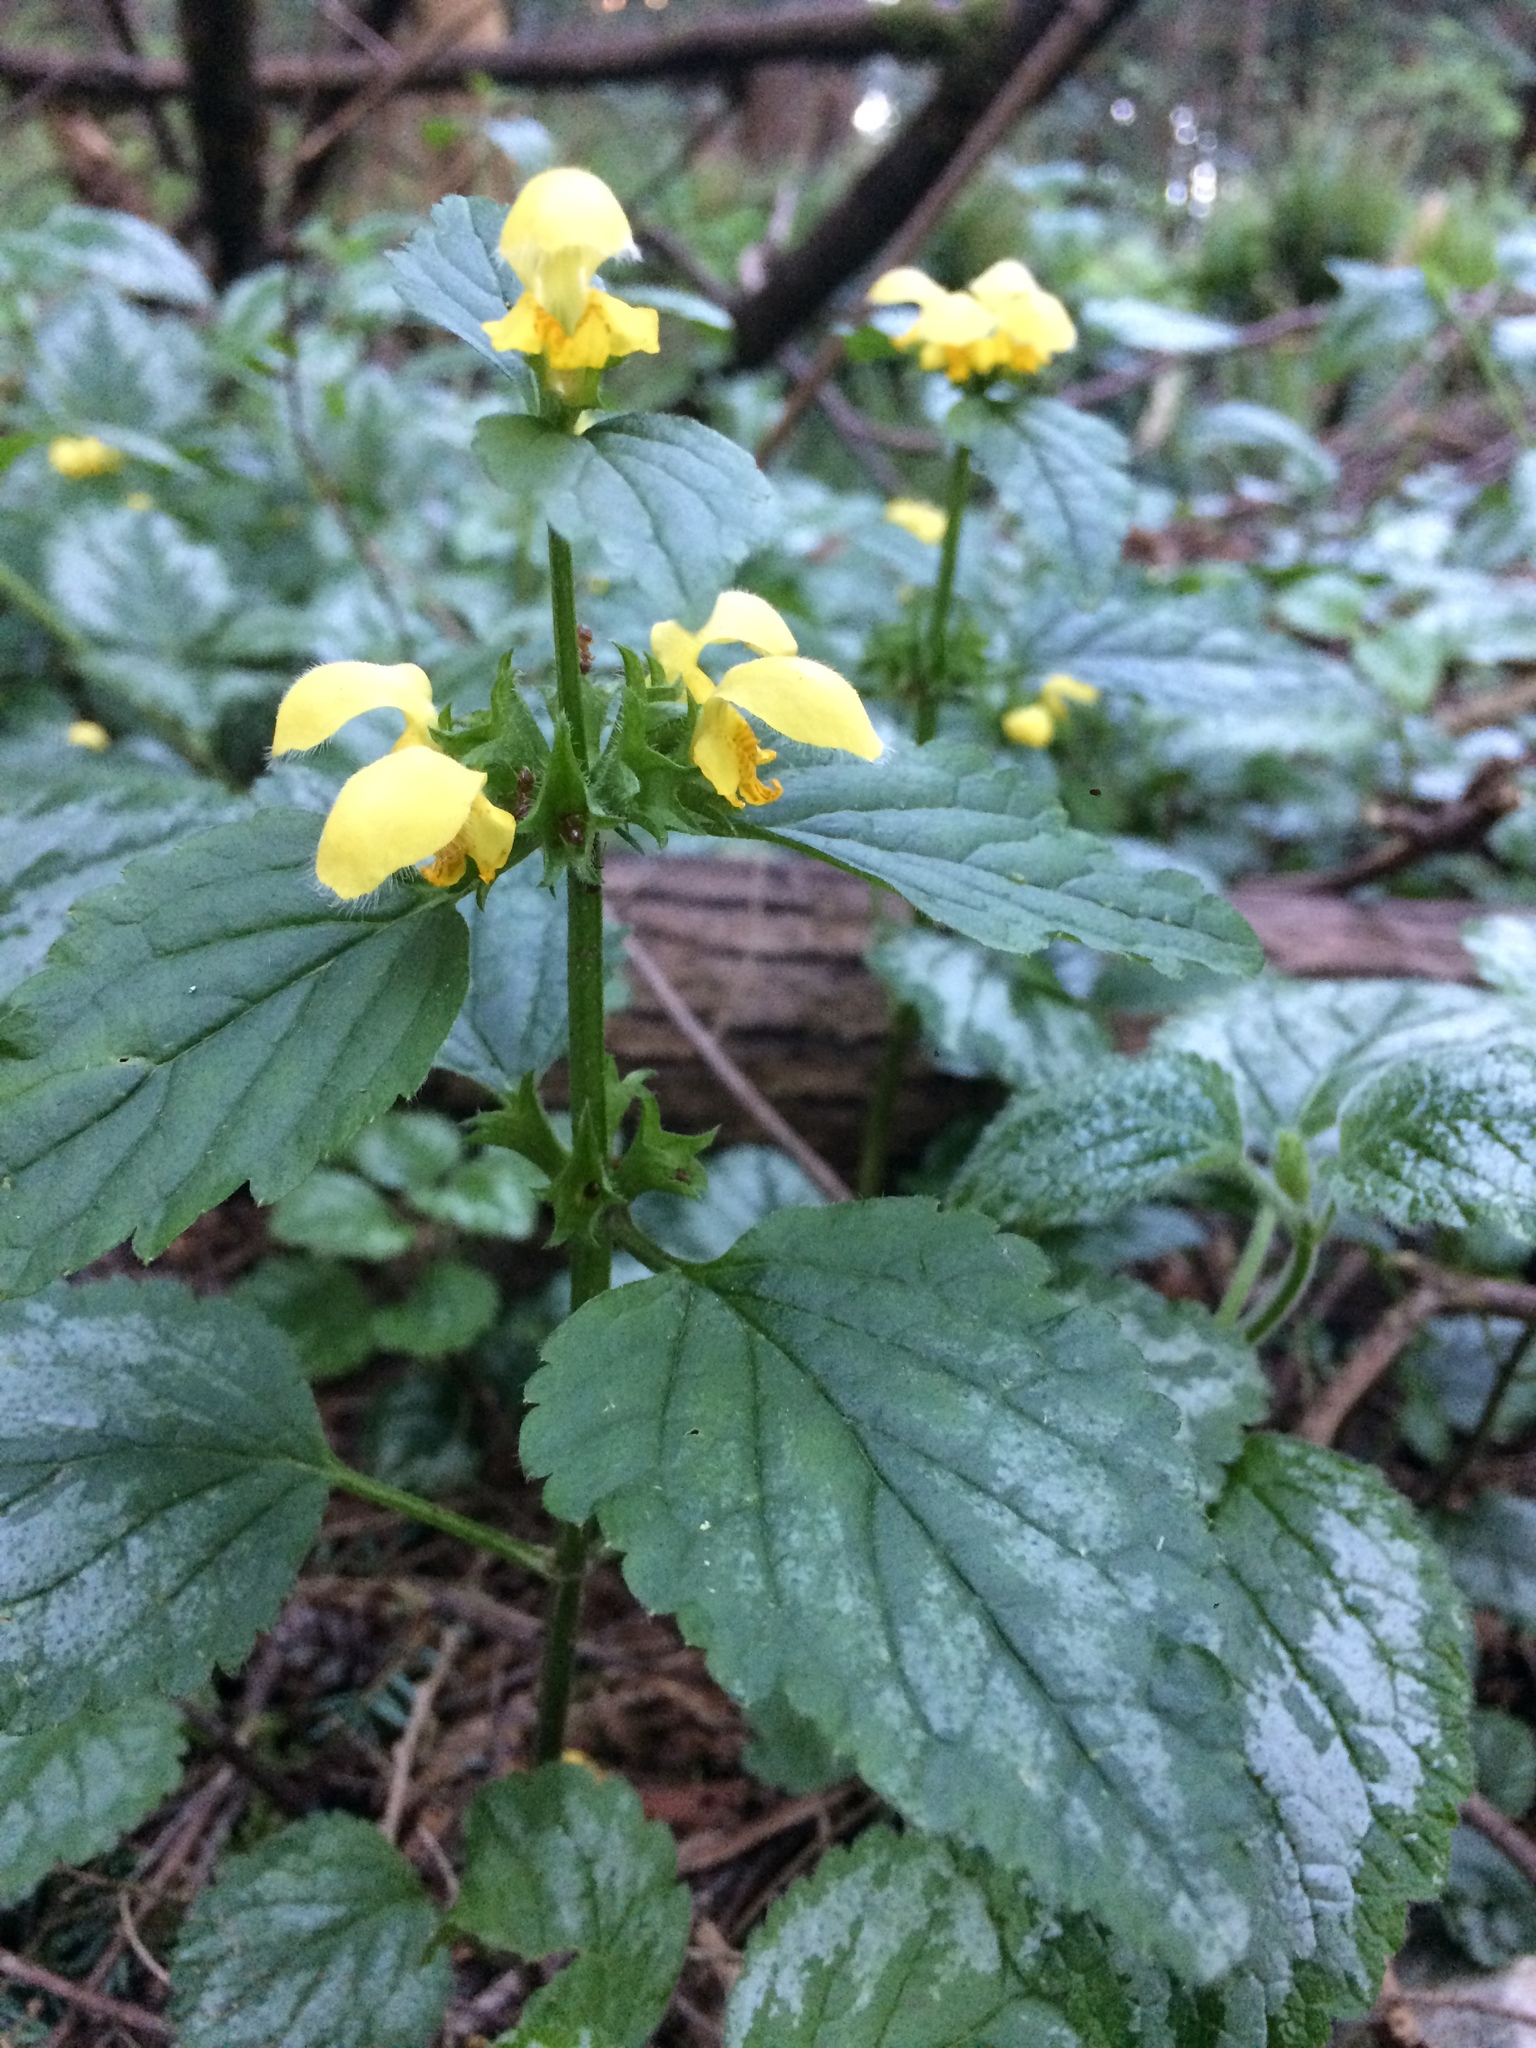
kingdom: Plantae
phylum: Tracheophyta
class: Magnoliopsida
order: Lamiales
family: Lamiaceae
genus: Lamium
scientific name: Lamium galeobdolon
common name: Yellow archangel
